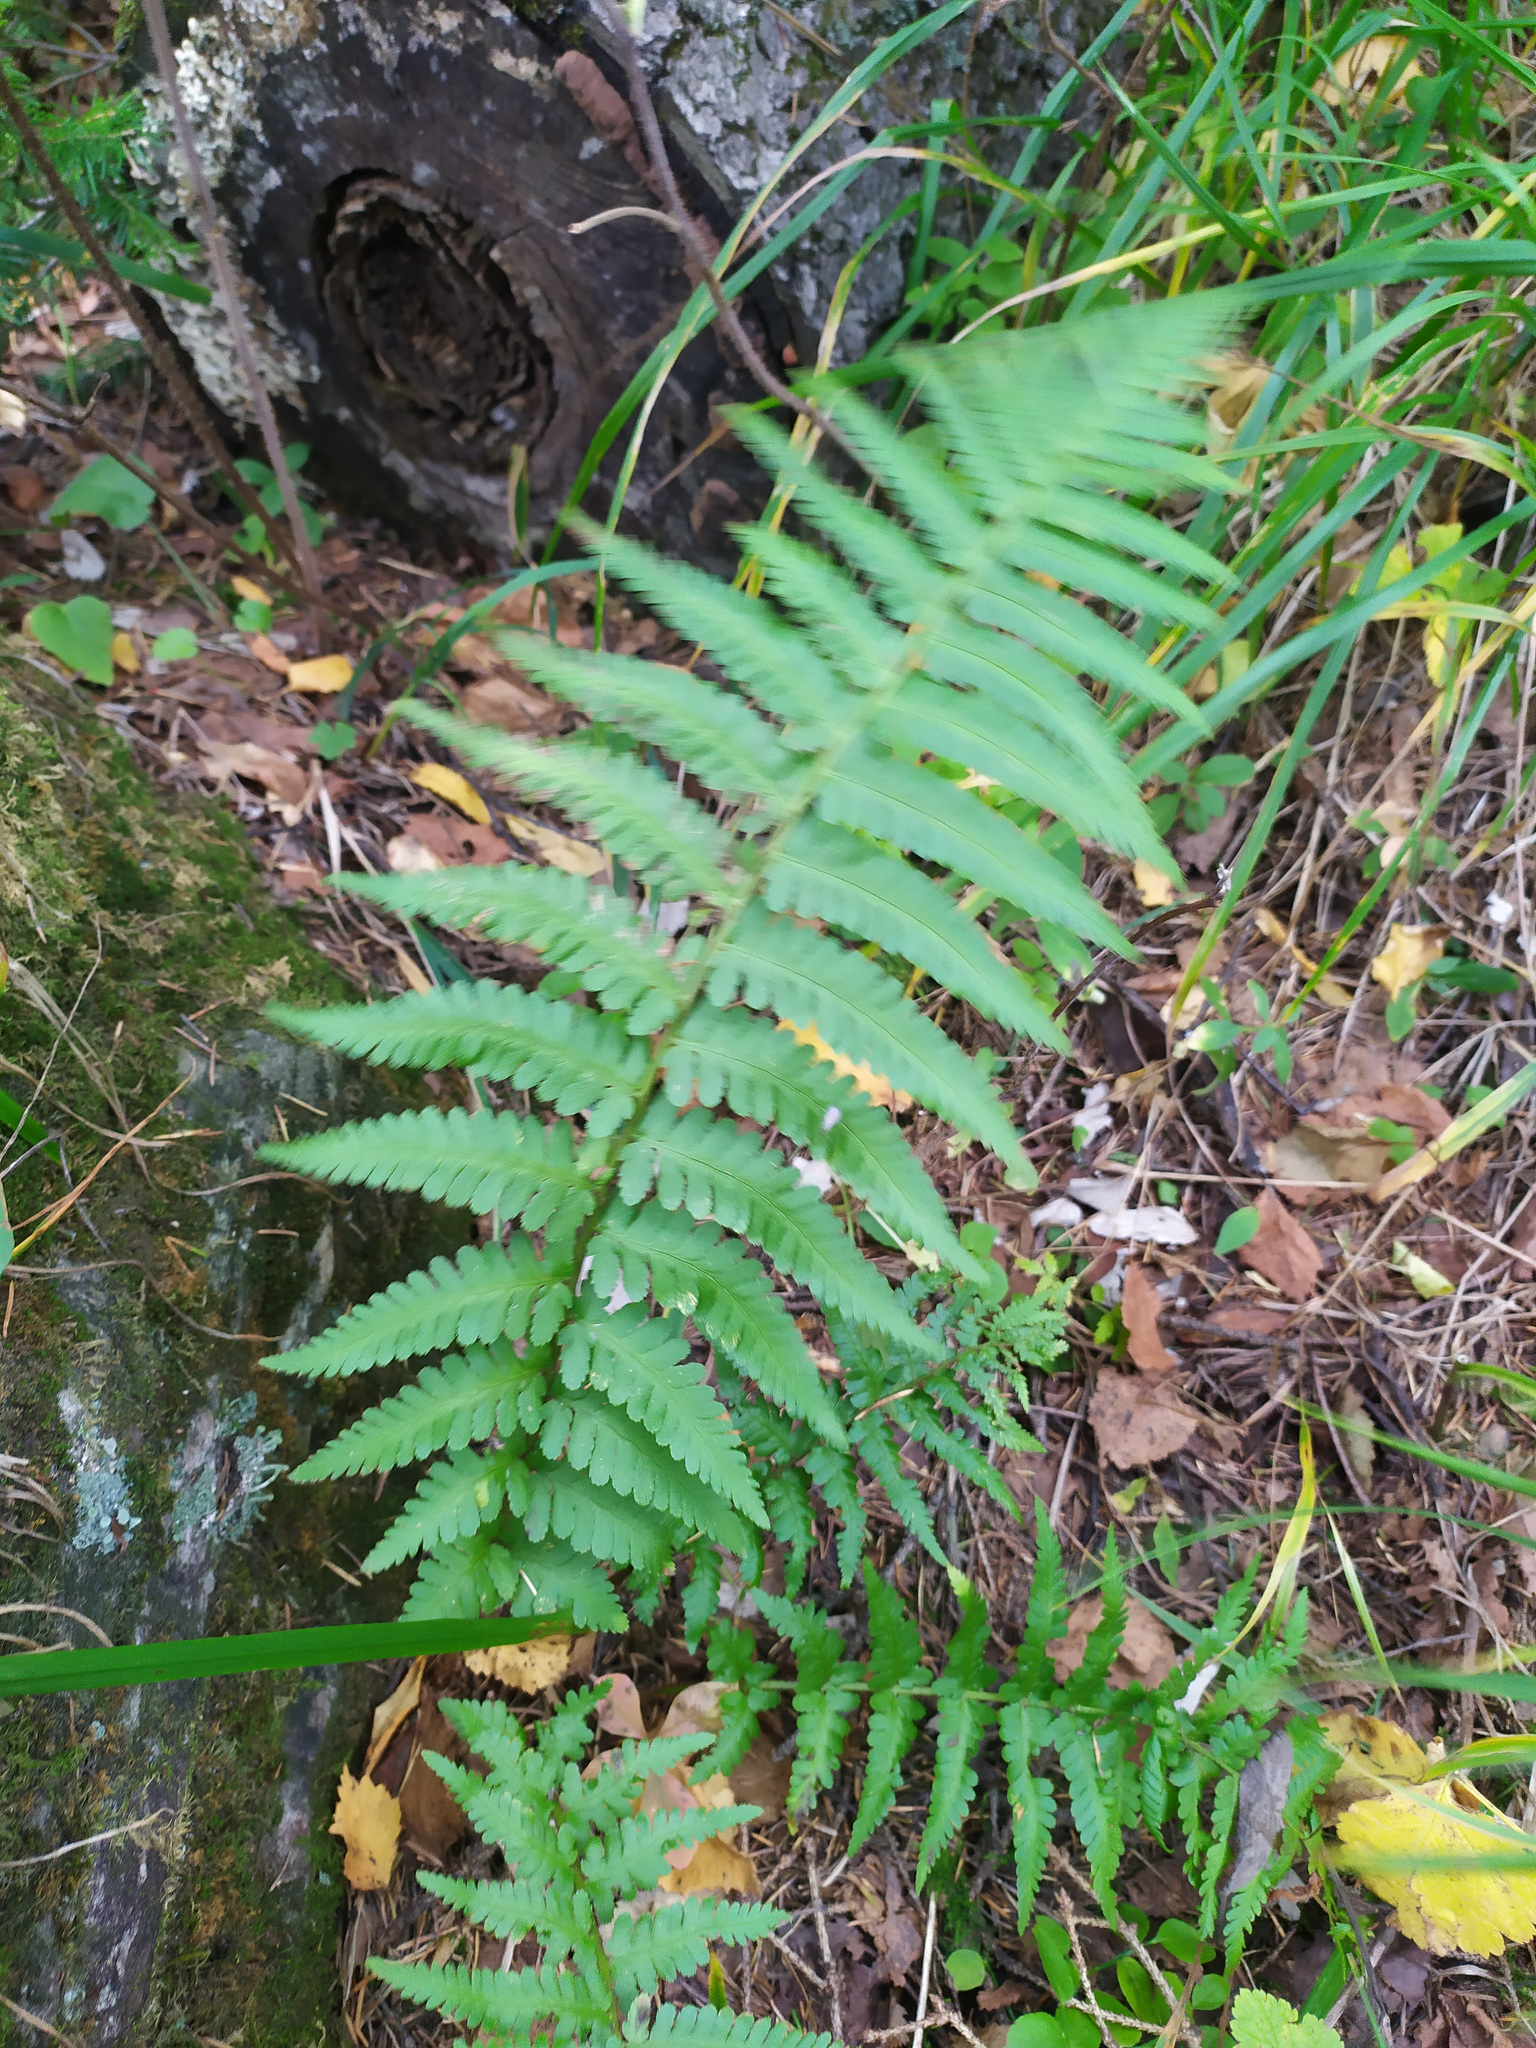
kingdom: Plantae
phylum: Tracheophyta
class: Polypodiopsida
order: Polypodiales
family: Dryopteridaceae
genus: Dryopteris
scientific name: Dryopteris filix-mas
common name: Male fern
